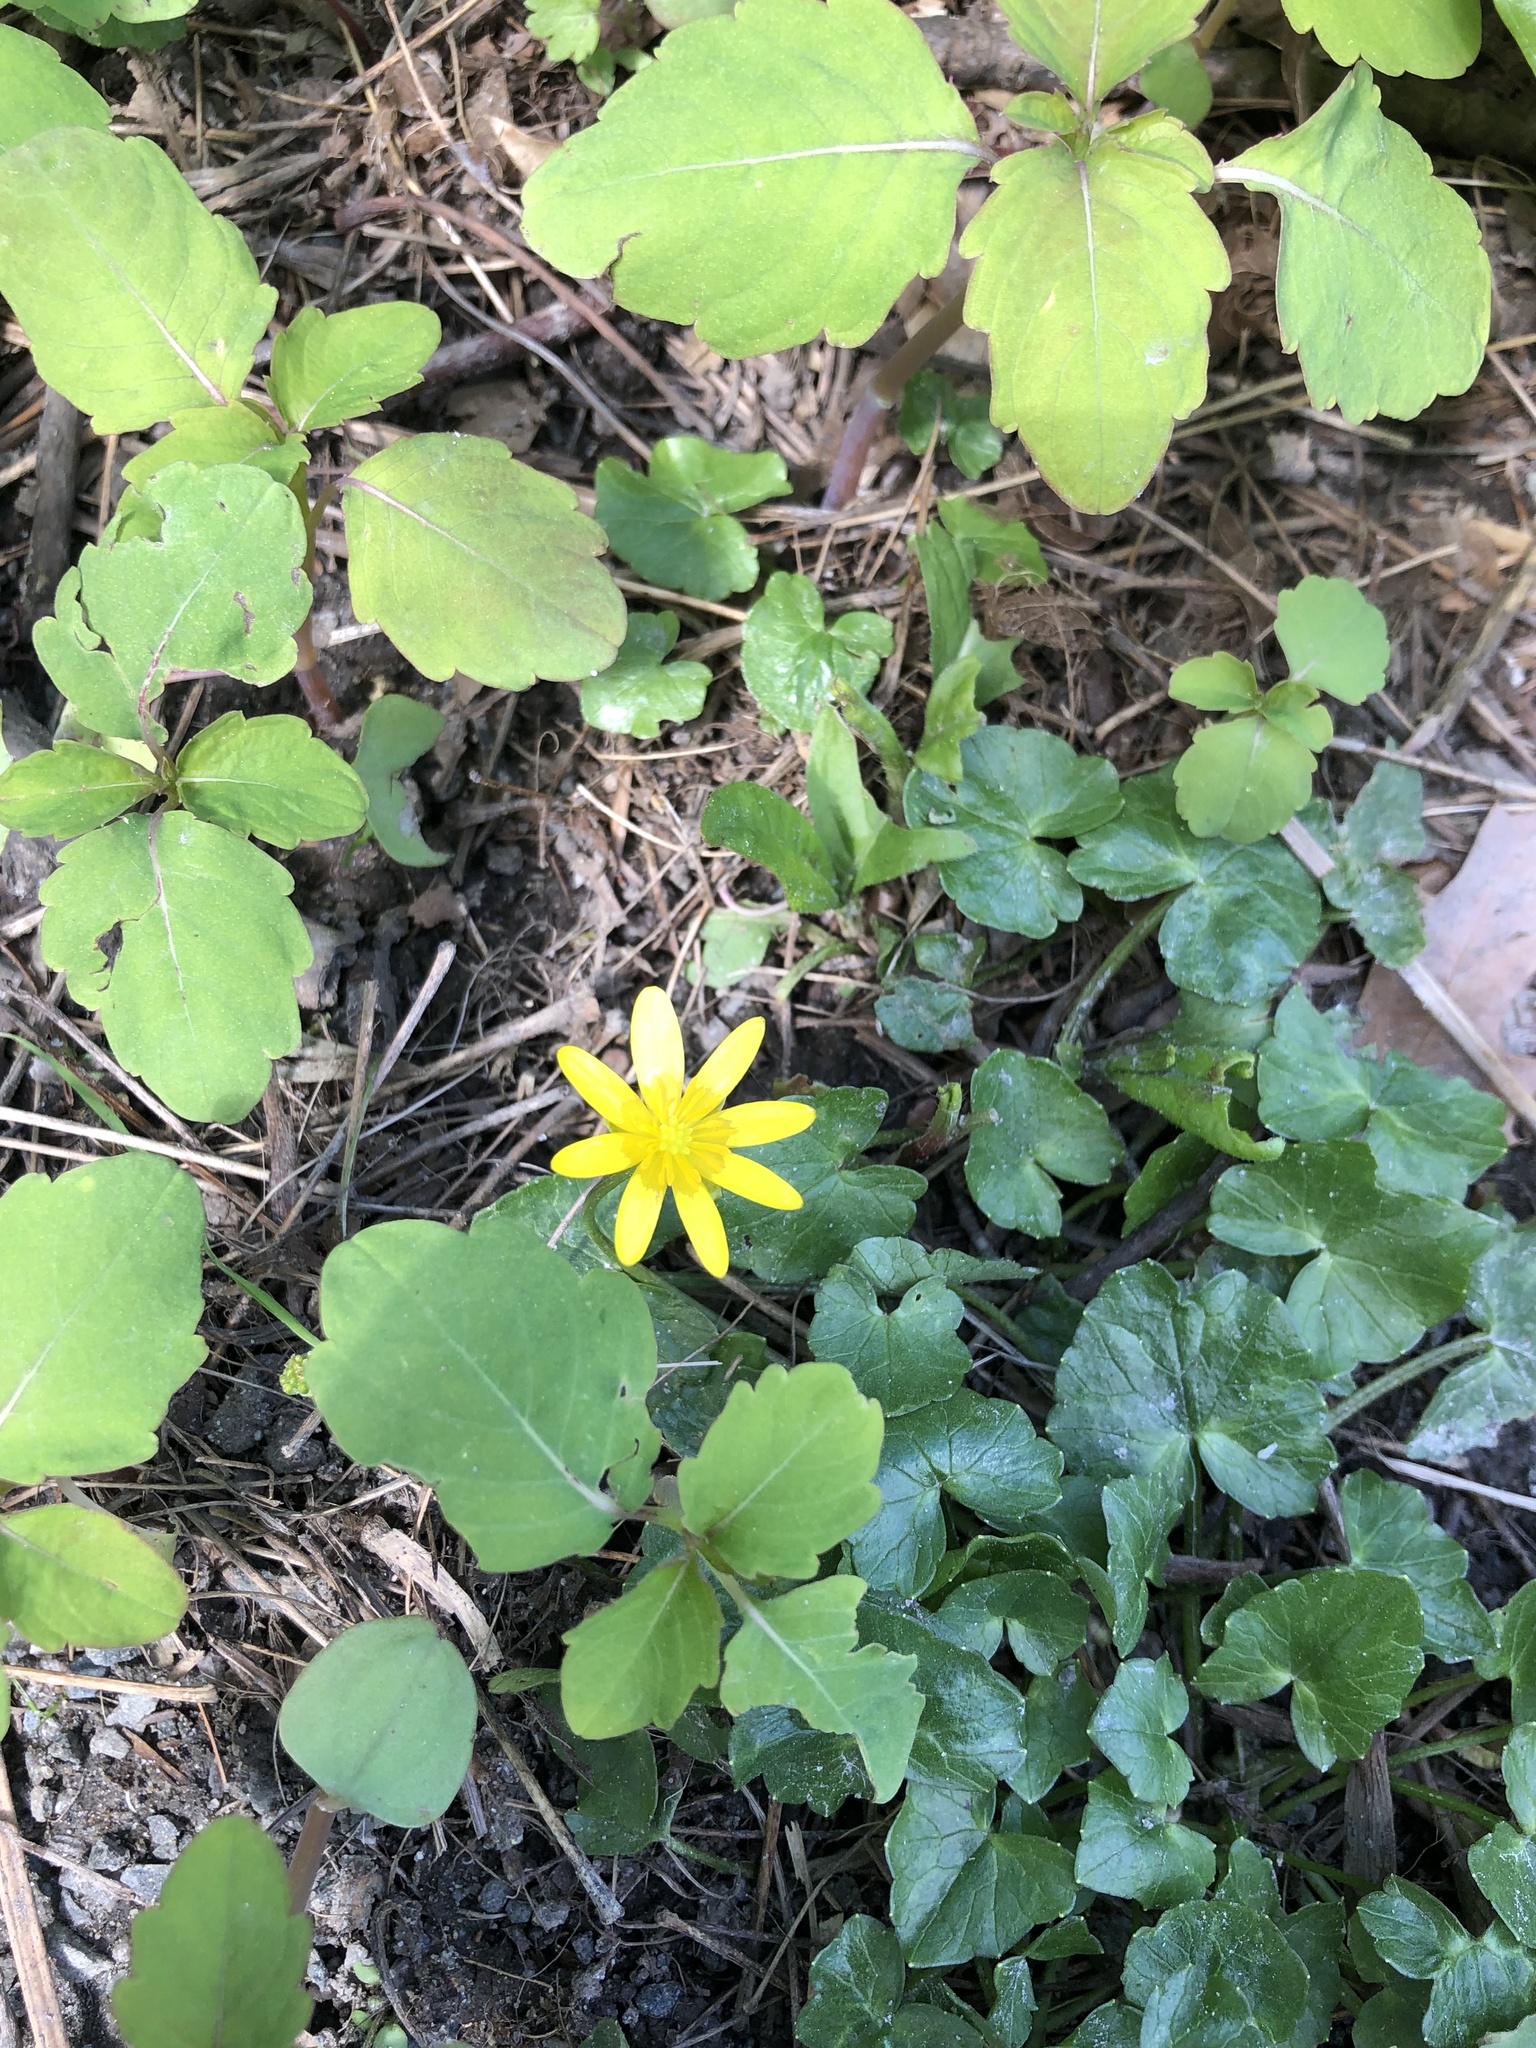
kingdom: Plantae
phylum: Tracheophyta
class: Magnoliopsida
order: Ranunculales
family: Ranunculaceae
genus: Ficaria
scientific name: Ficaria verna
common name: Lesser celandine
